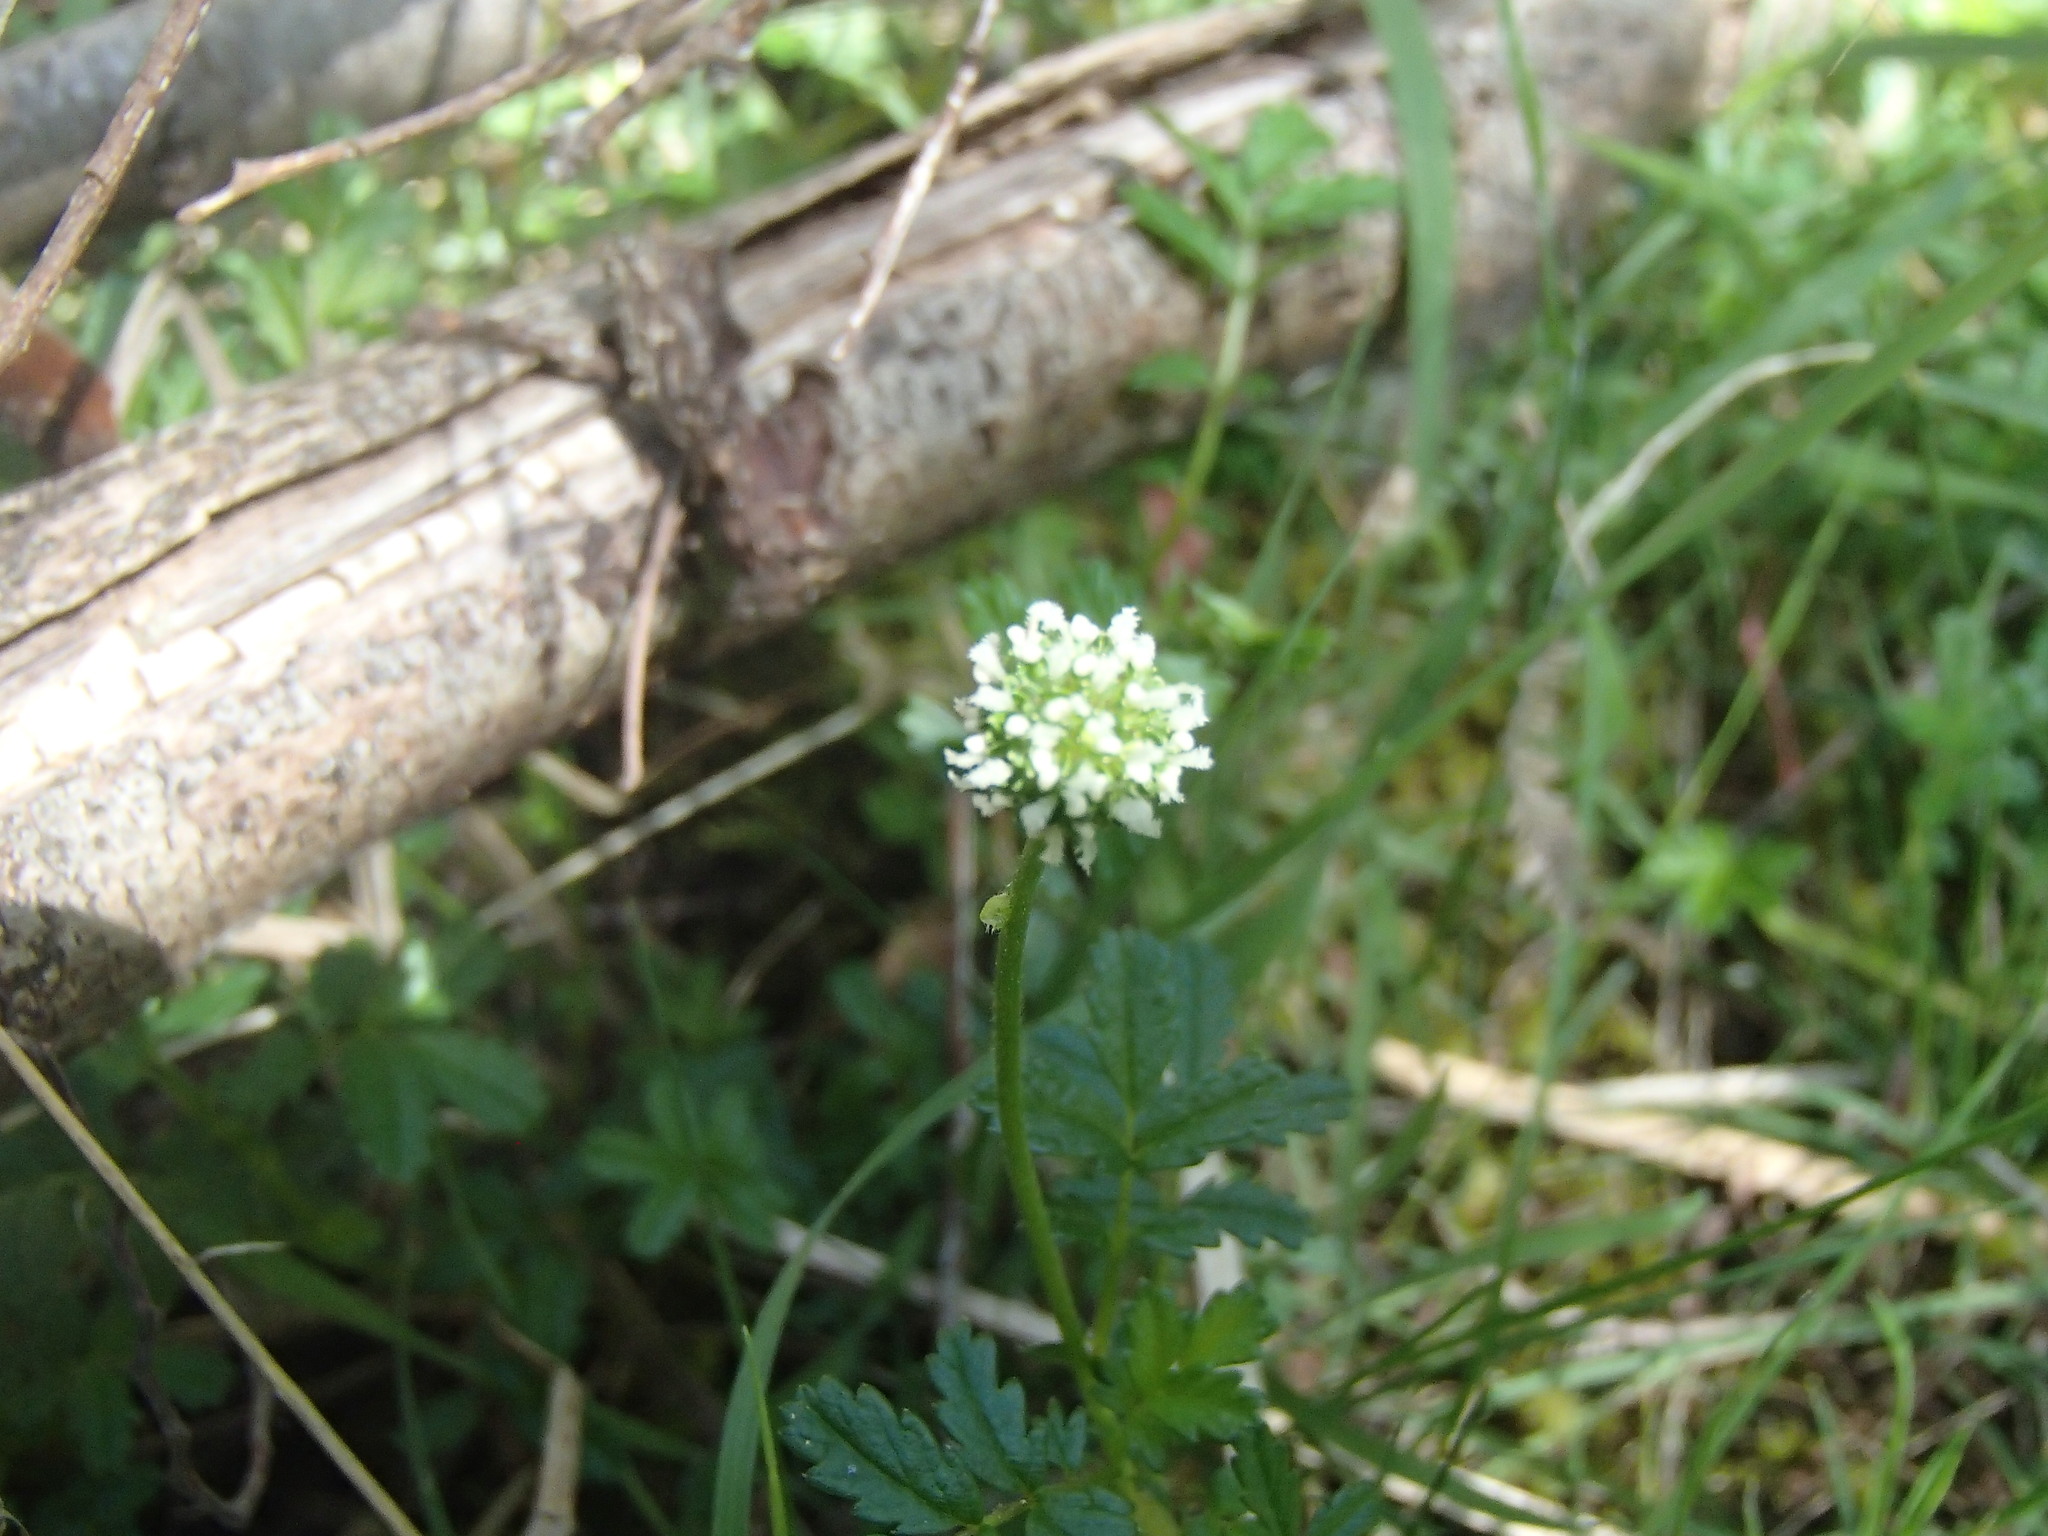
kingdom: Plantae
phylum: Tracheophyta
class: Magnoliopsida
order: Rosales
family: Rosaceae
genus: Acaena
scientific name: Acaena novae-zelandiae
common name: Pirri-pirri-bur
